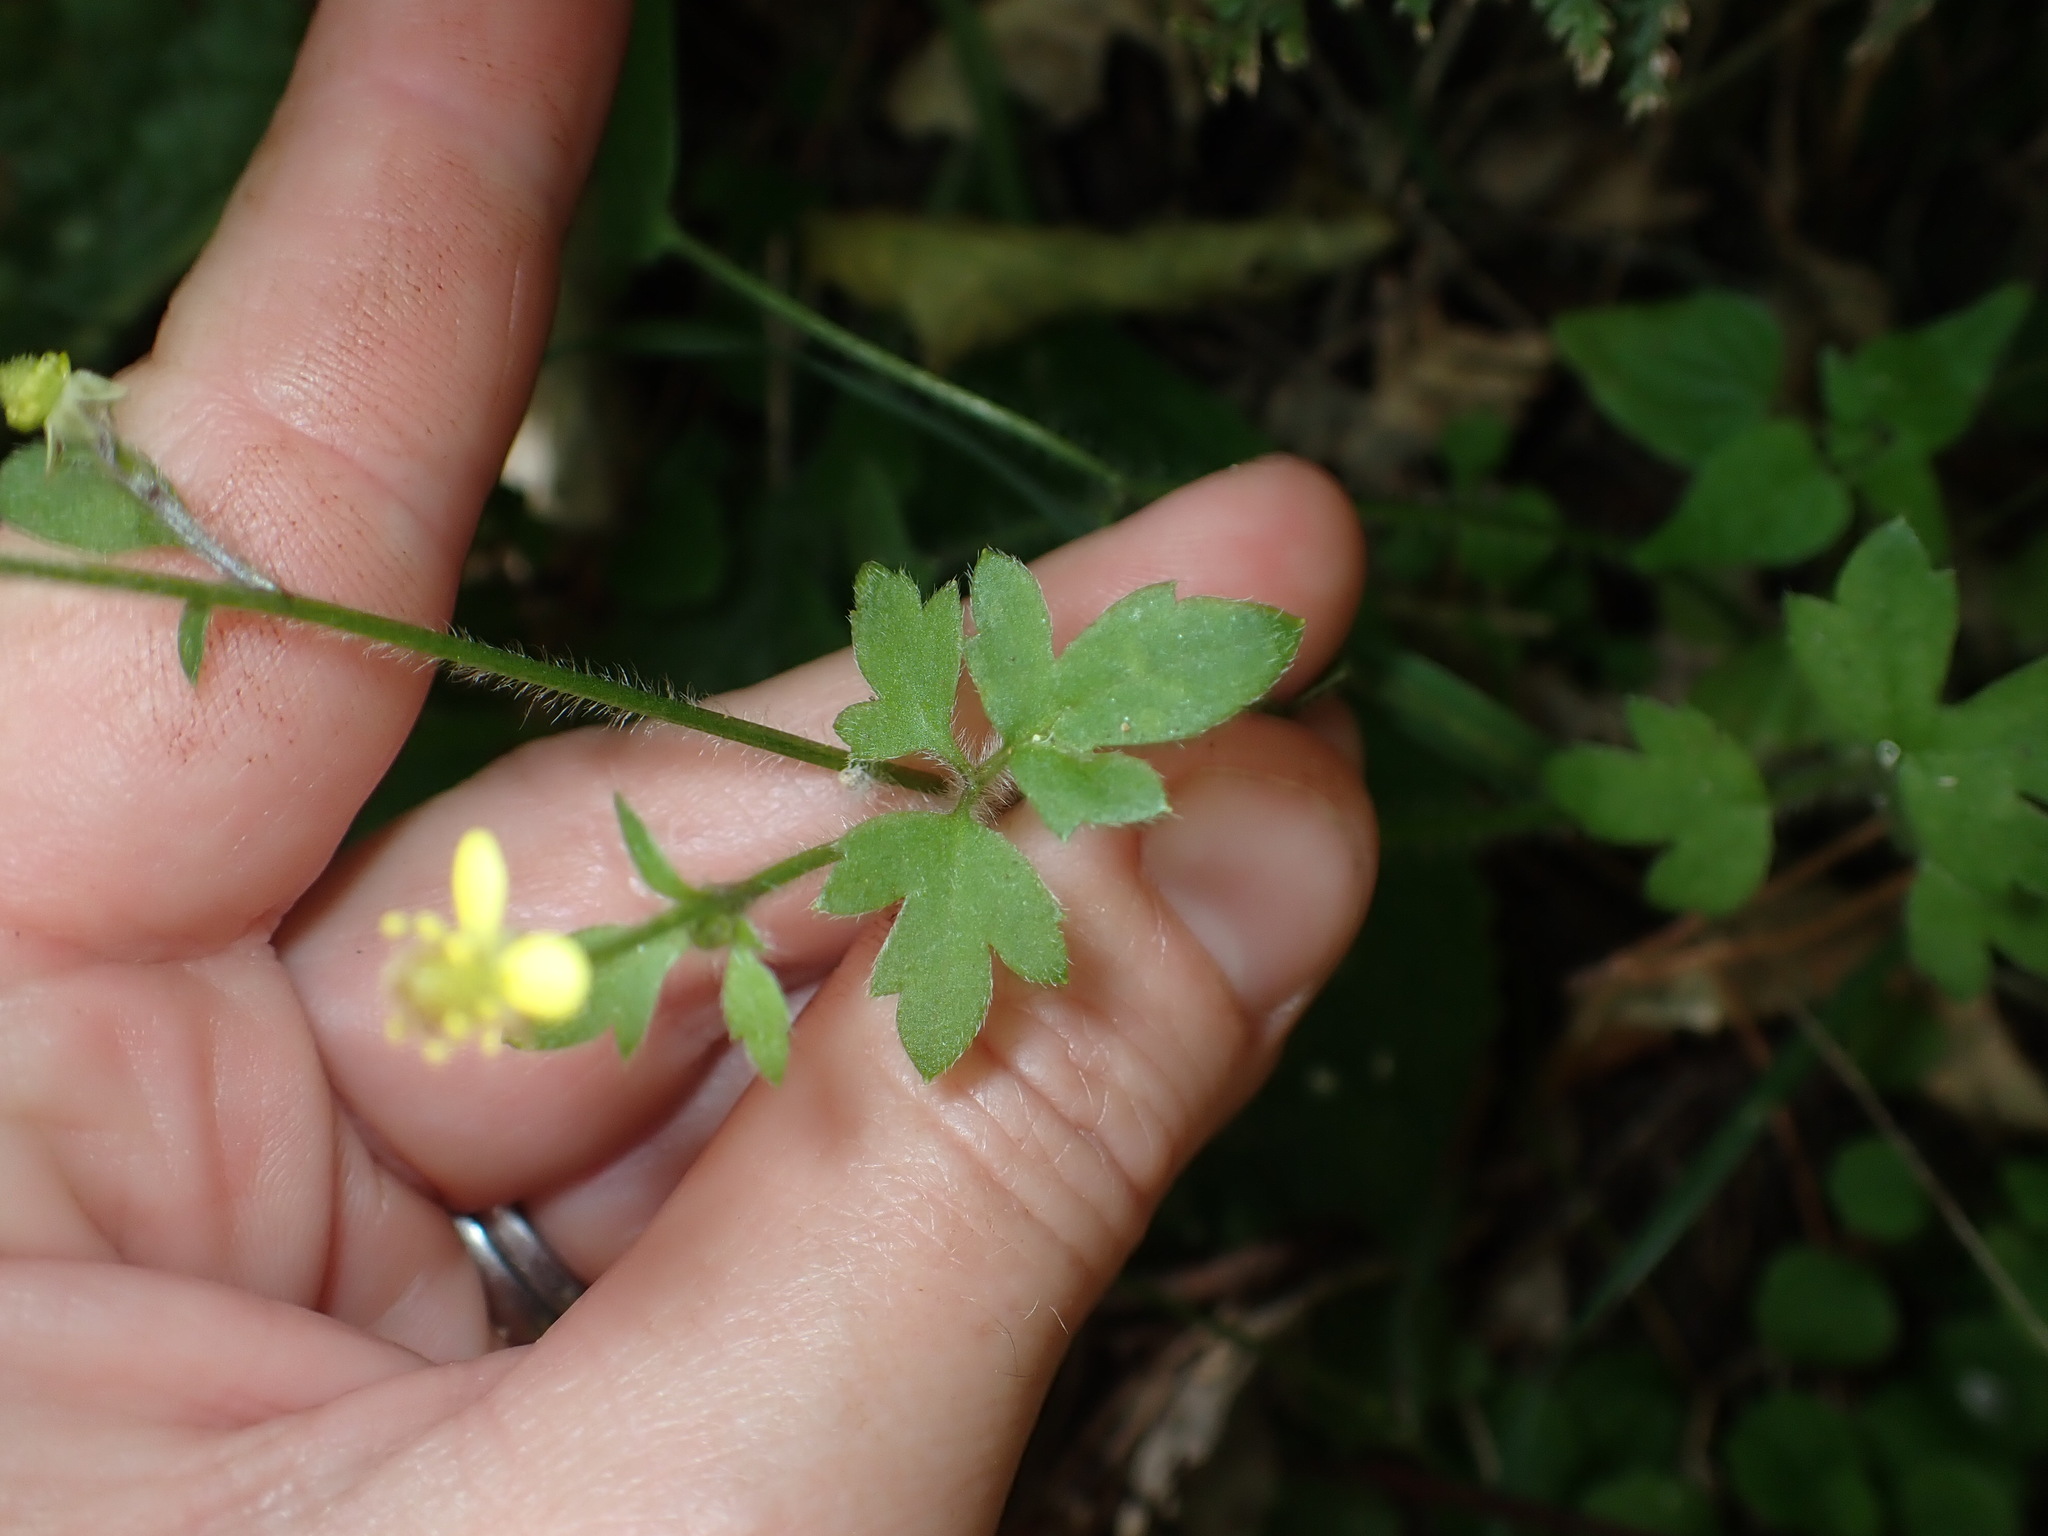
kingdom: Plantae
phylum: Tracheophyta
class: Magnoliopsida
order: Ranunculales
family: Ranunculaceae
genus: Ranunculus
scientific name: Ranunculus reflexus
